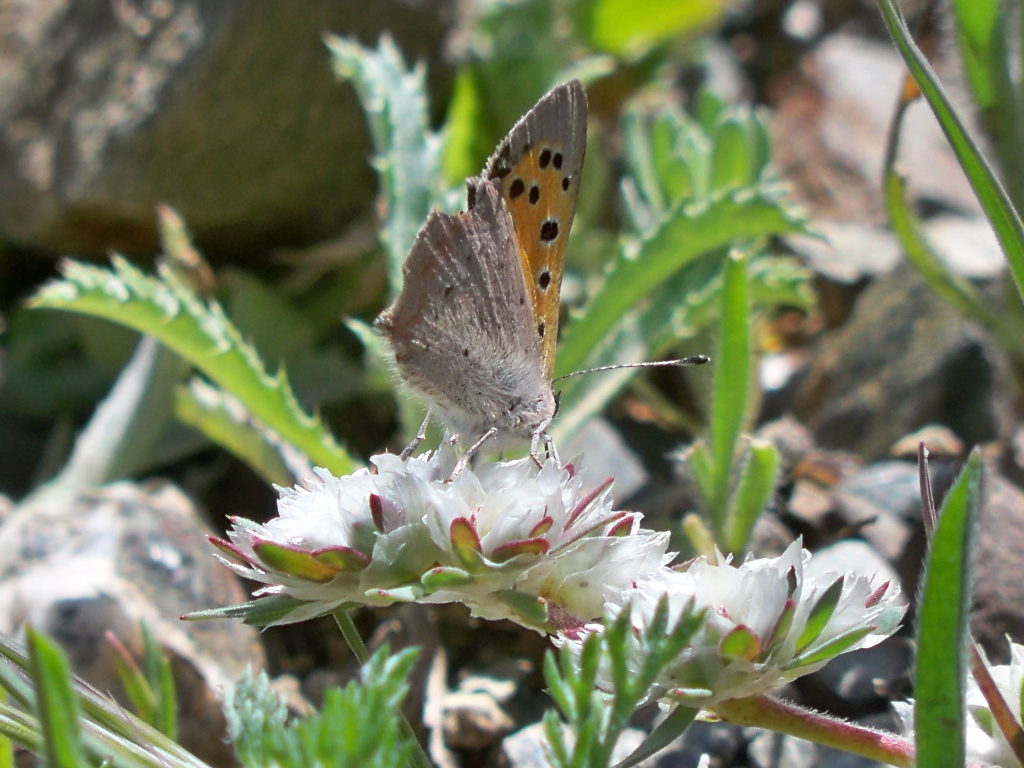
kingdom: Animalia
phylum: Arthropoda
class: Insecta
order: Lepidoptera
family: Lycaenidae
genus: Lycaena
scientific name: Lycaena phlaeas
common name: Small copper
